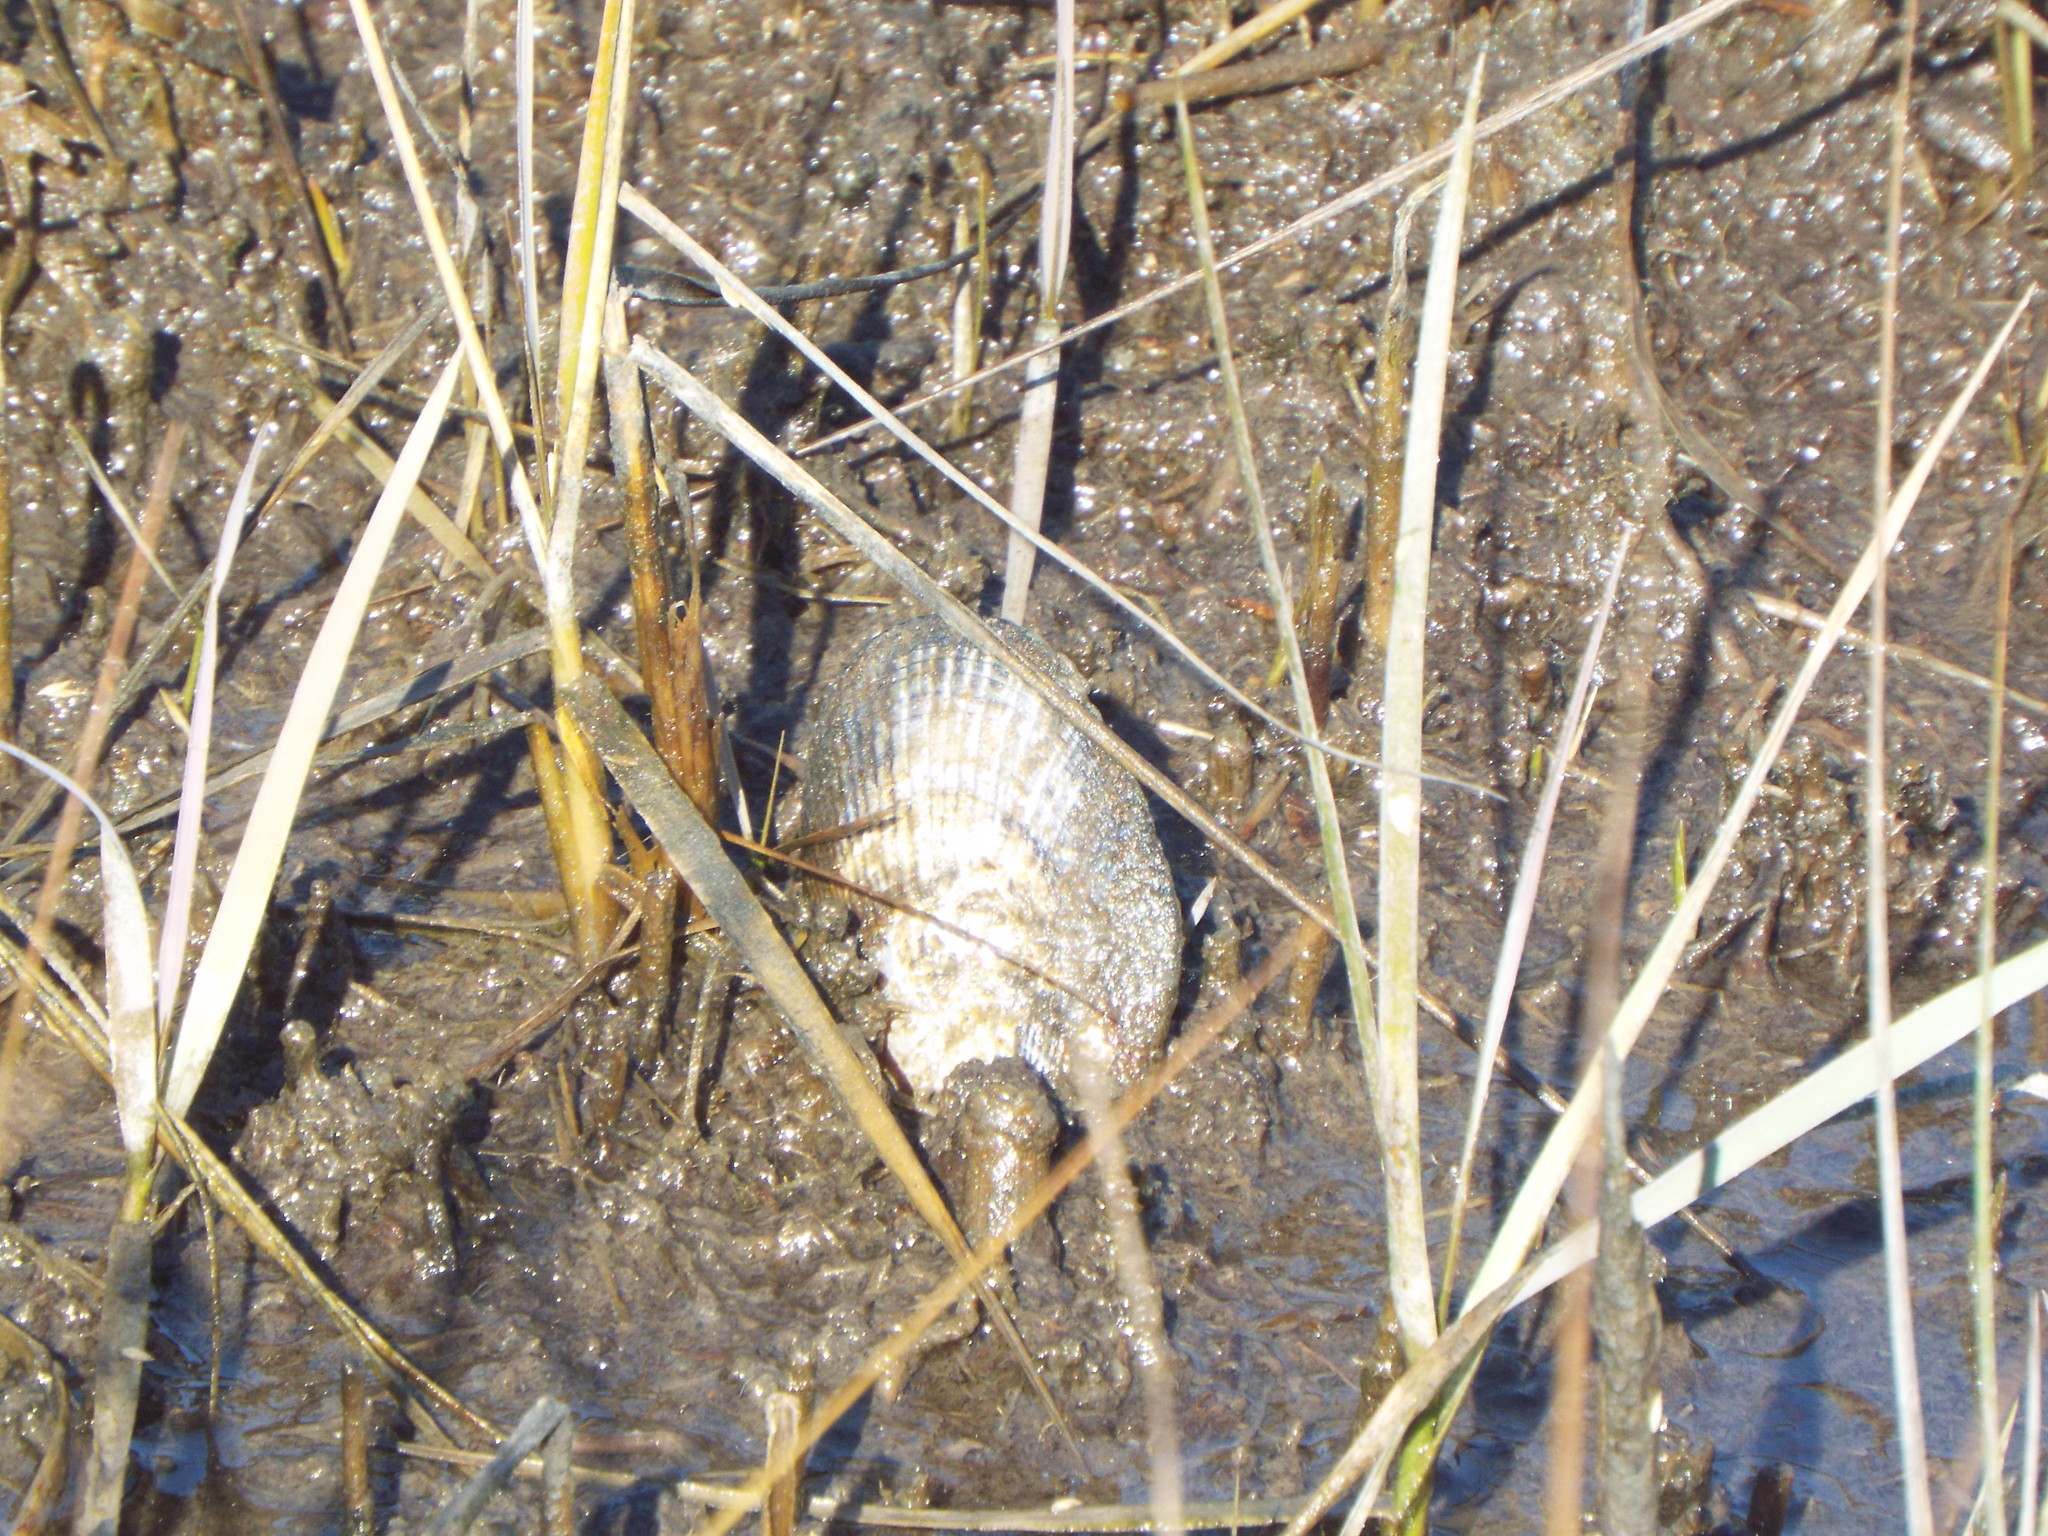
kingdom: Animalia
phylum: Mollusca
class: Bivalvia
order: Mytilida
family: Mytilidae
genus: Geukensia
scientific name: Geukensia demissa
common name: Ribbed mussel
